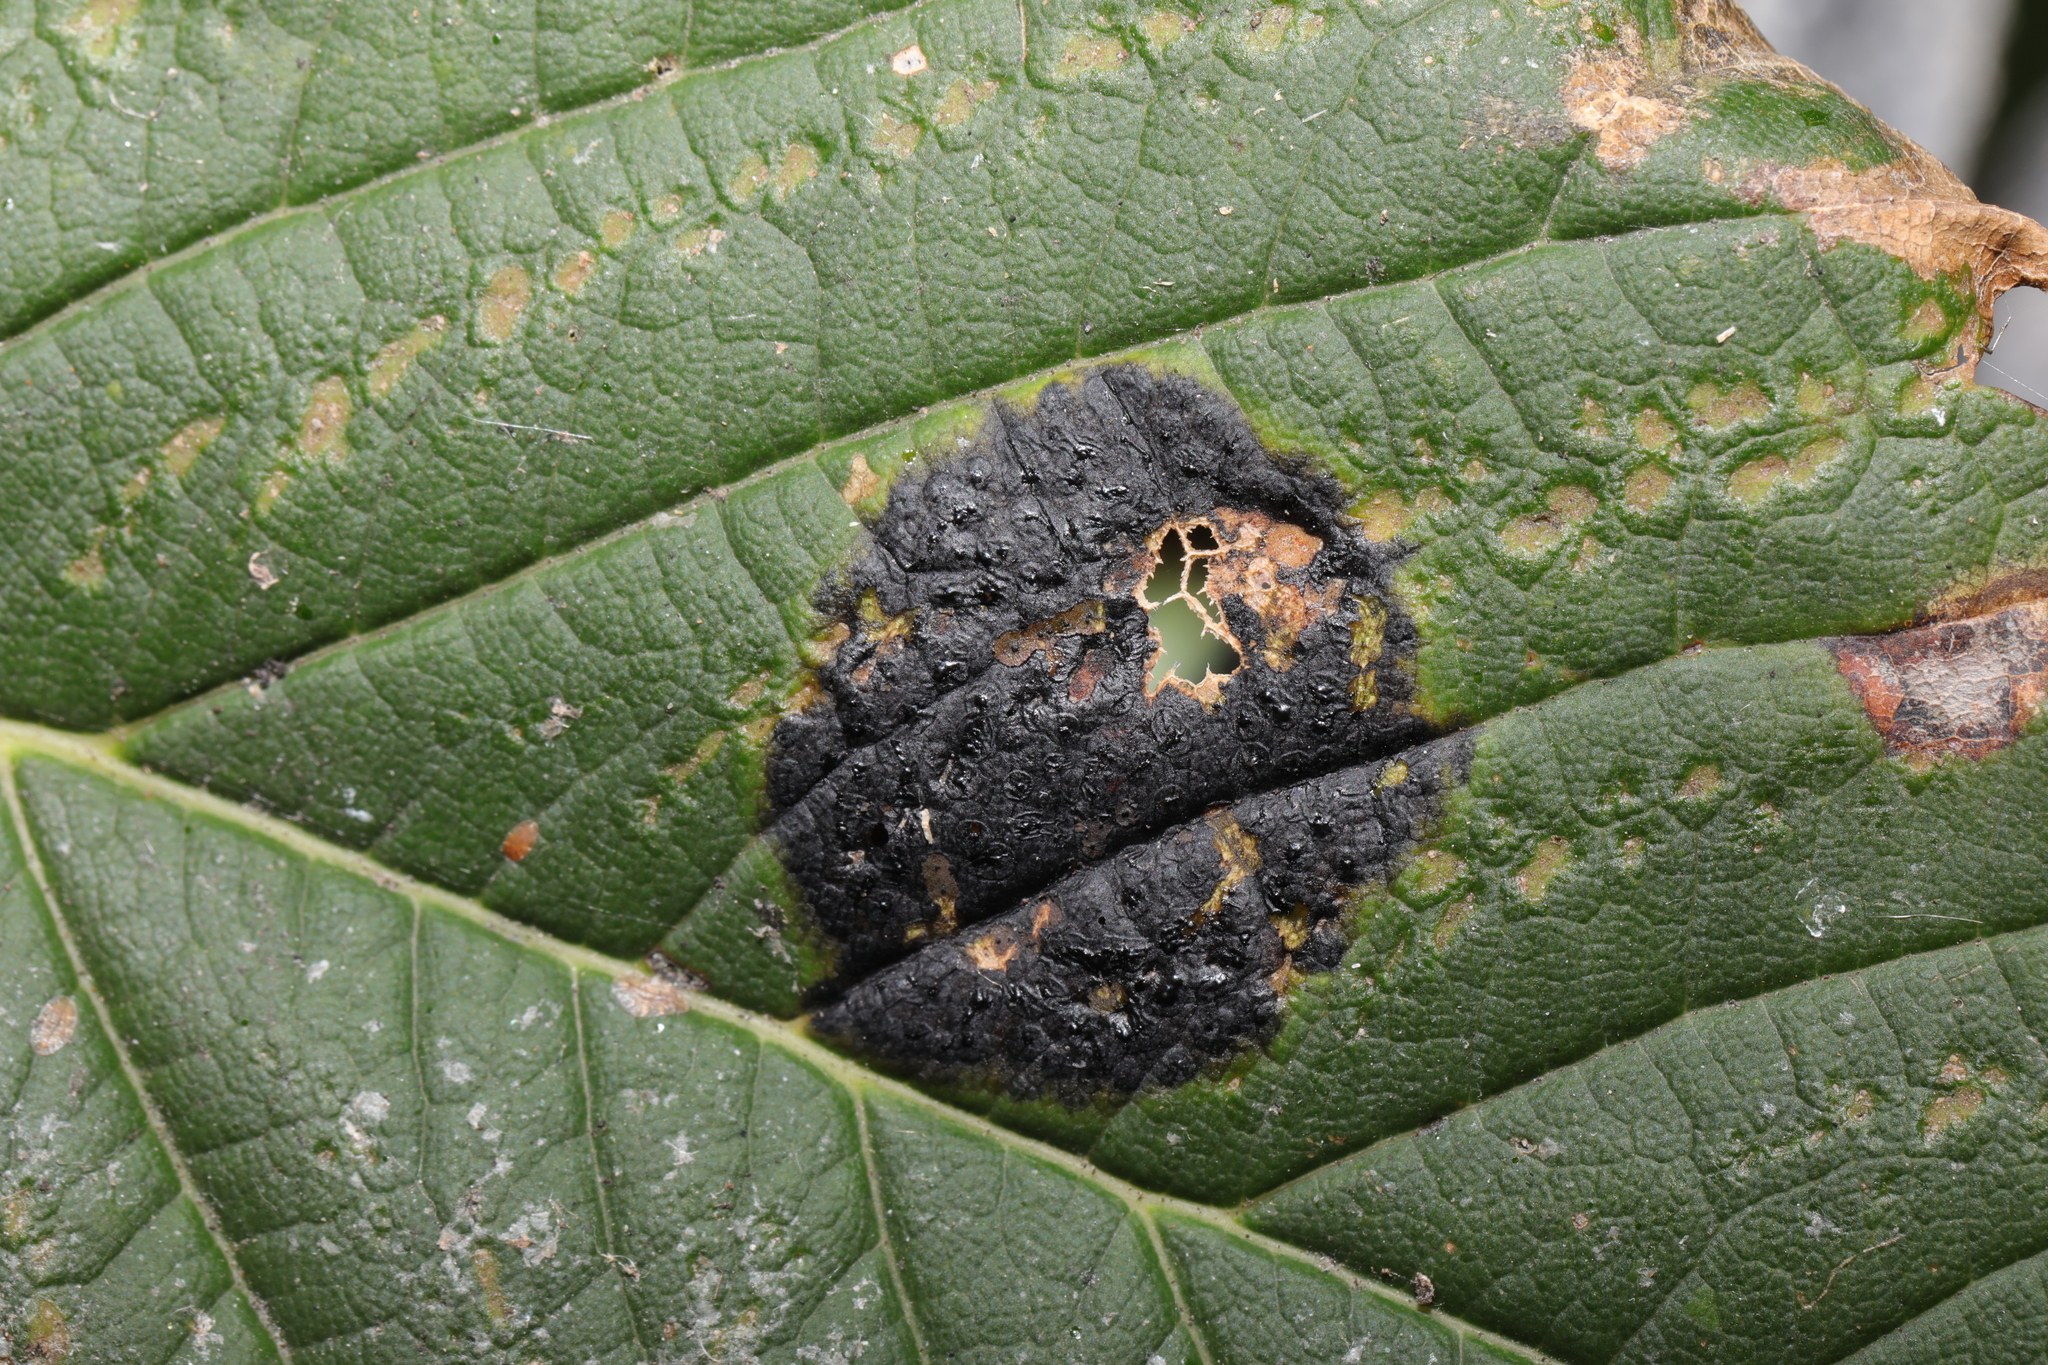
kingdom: Fungi
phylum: Ascomycota
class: Leotiomycetes
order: Rhytismatales
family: Rhytismataceae
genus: Rhytisma
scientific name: Rhytisma acerinum
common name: European tar spot
